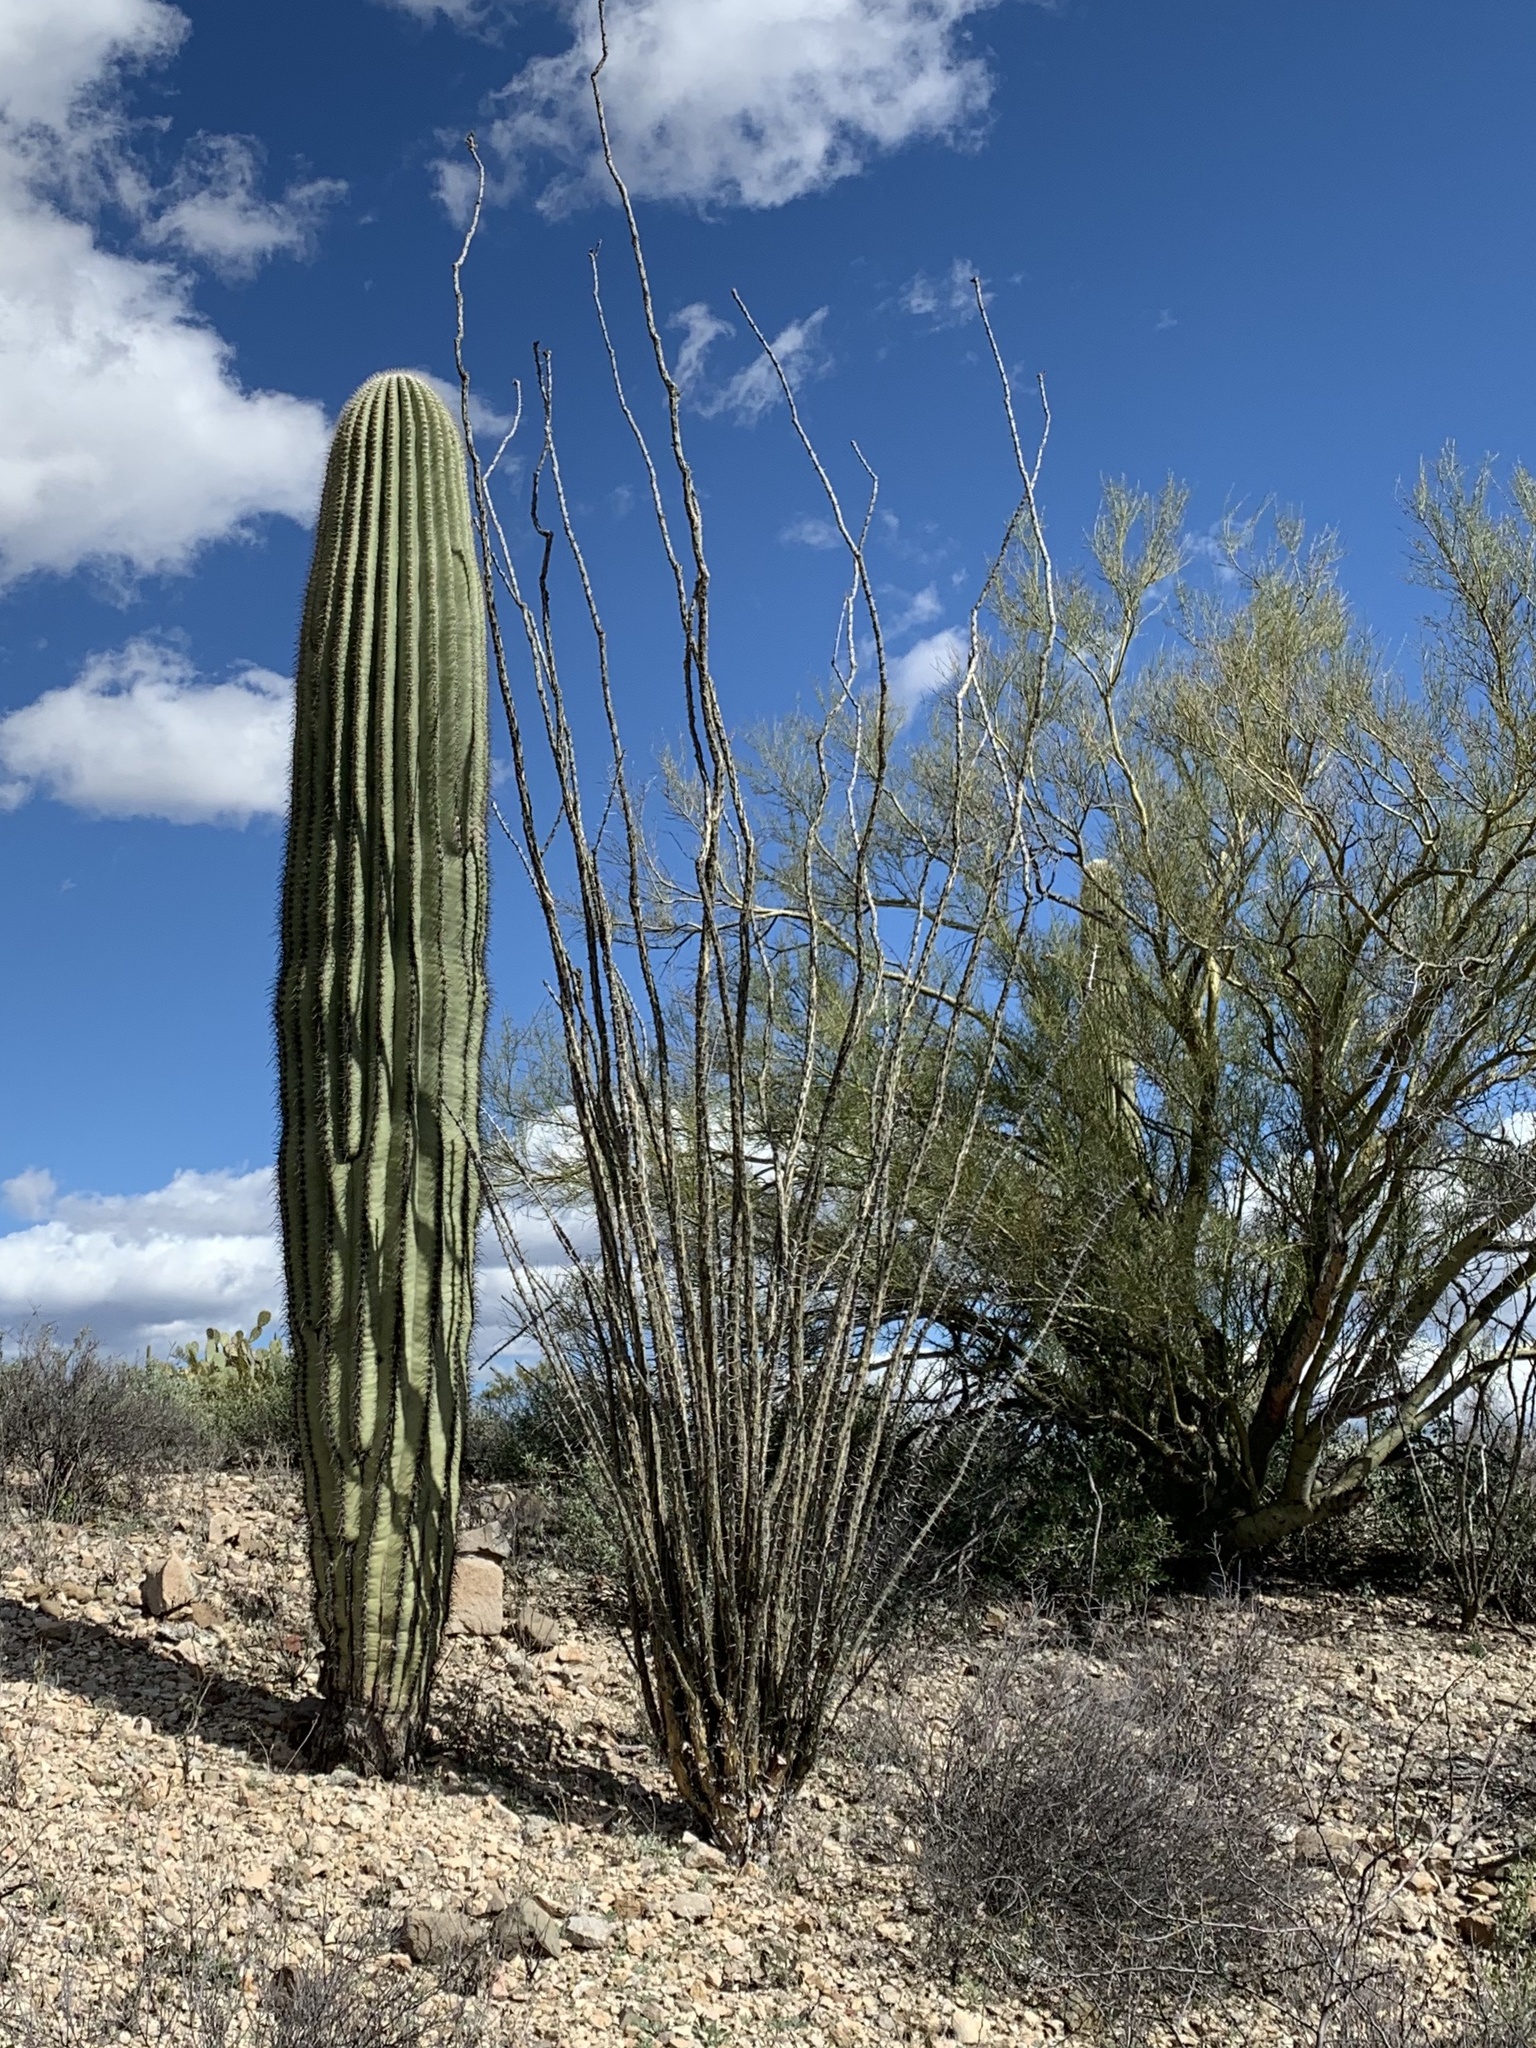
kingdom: Plantae
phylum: Tracheophyta
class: Magnoliopsida
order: Ericales
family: Fouquieriaceae
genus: Fouquieria
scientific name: Fouquieria splendens
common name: Vine-cactus
